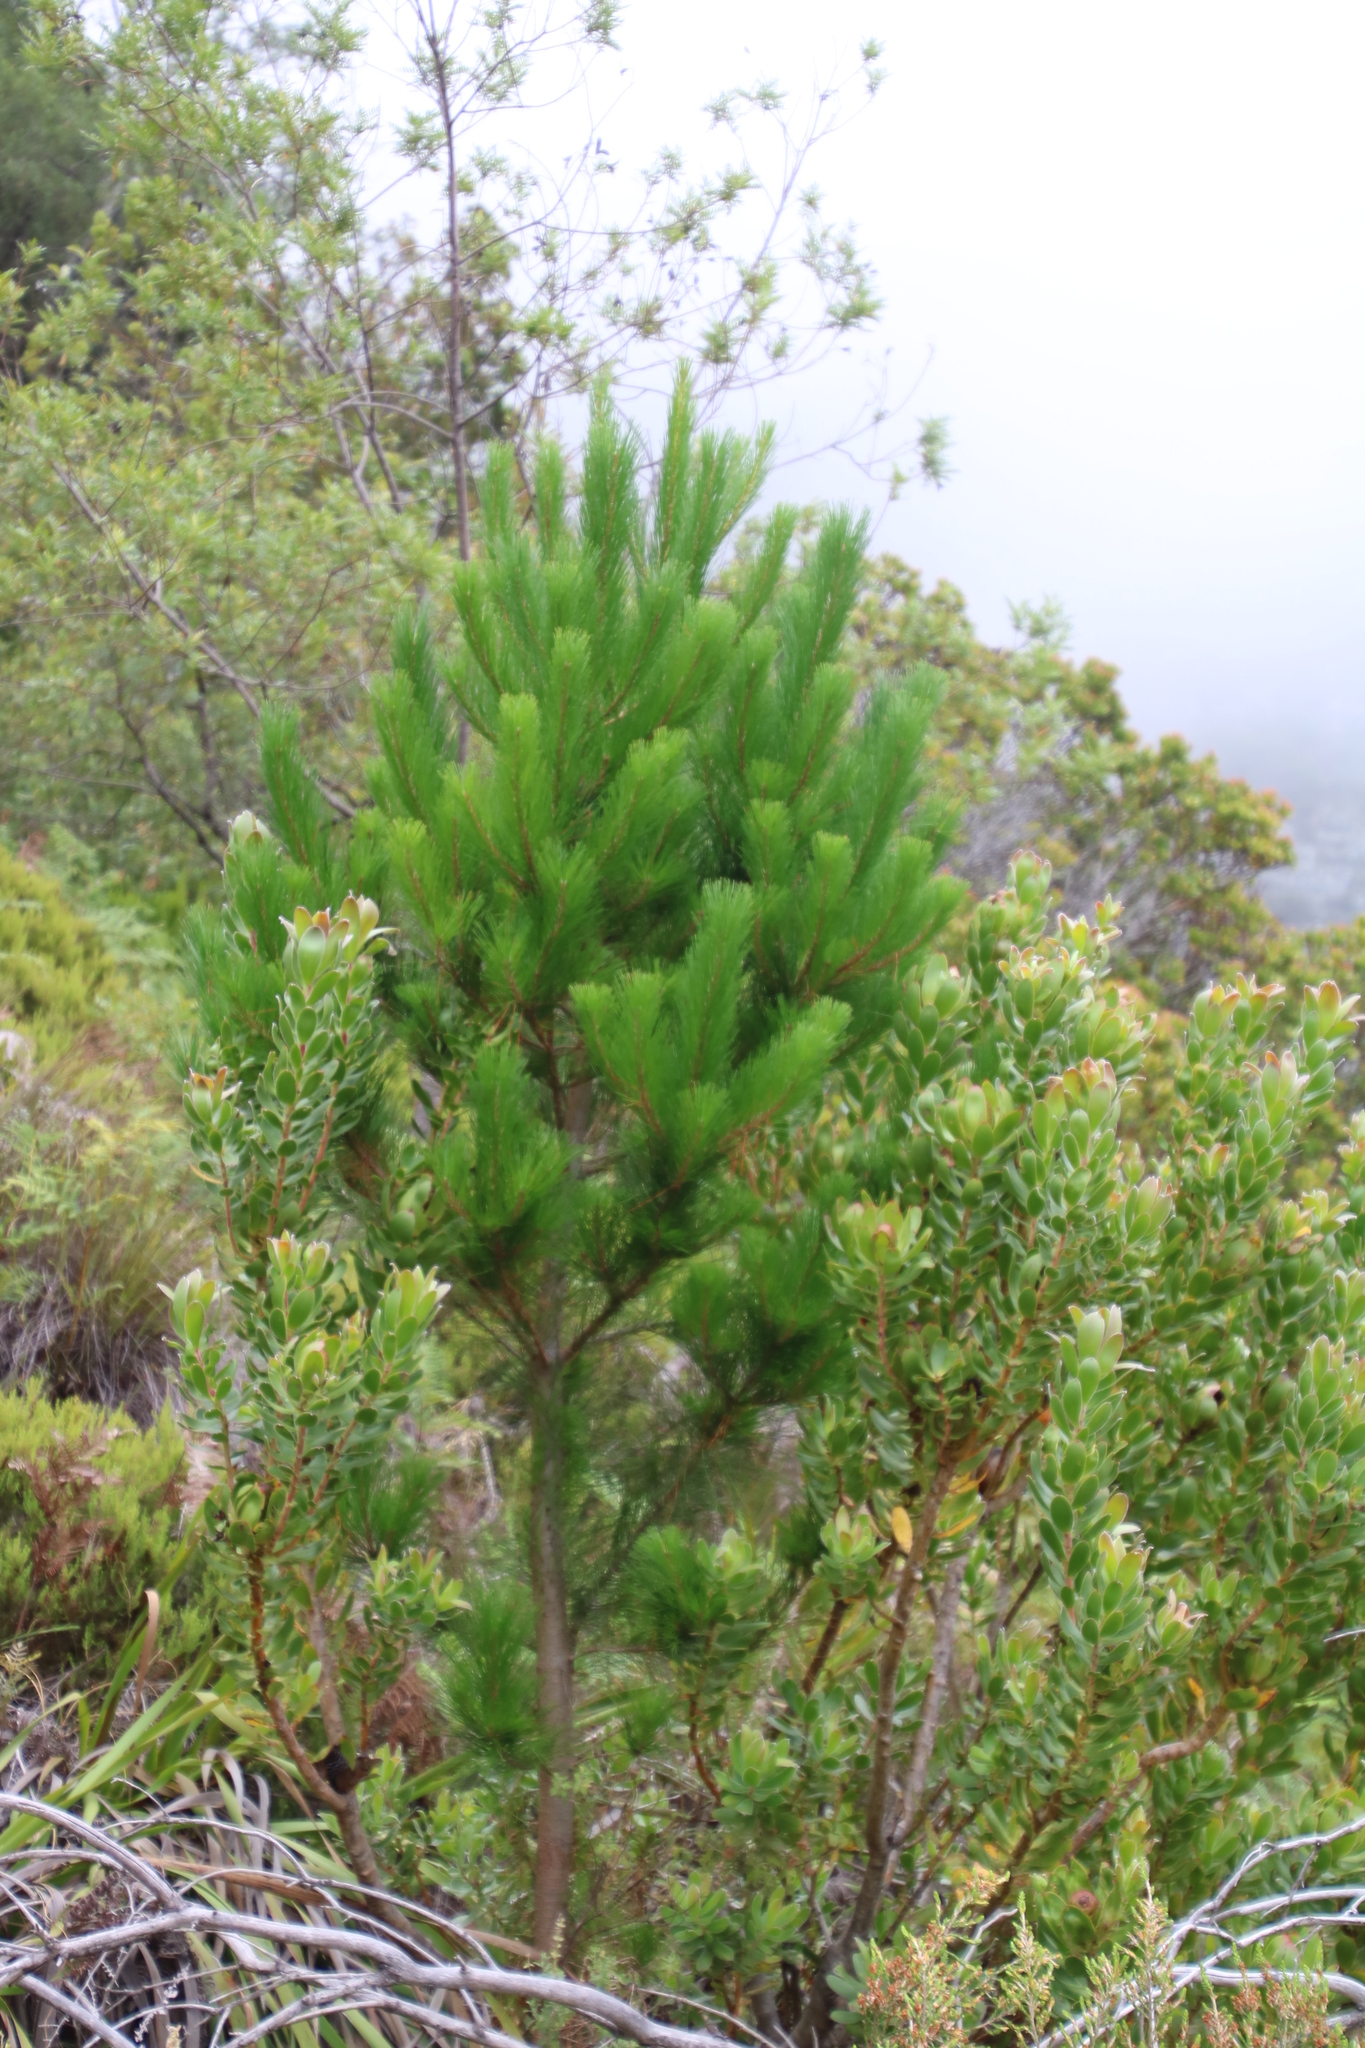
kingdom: Plantae
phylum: Tracheophyta
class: Magnoliopsida
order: Proteales
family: Proteaceae
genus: Leucadendron
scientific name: Leucadendron strobilinum
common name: Mountain rose
